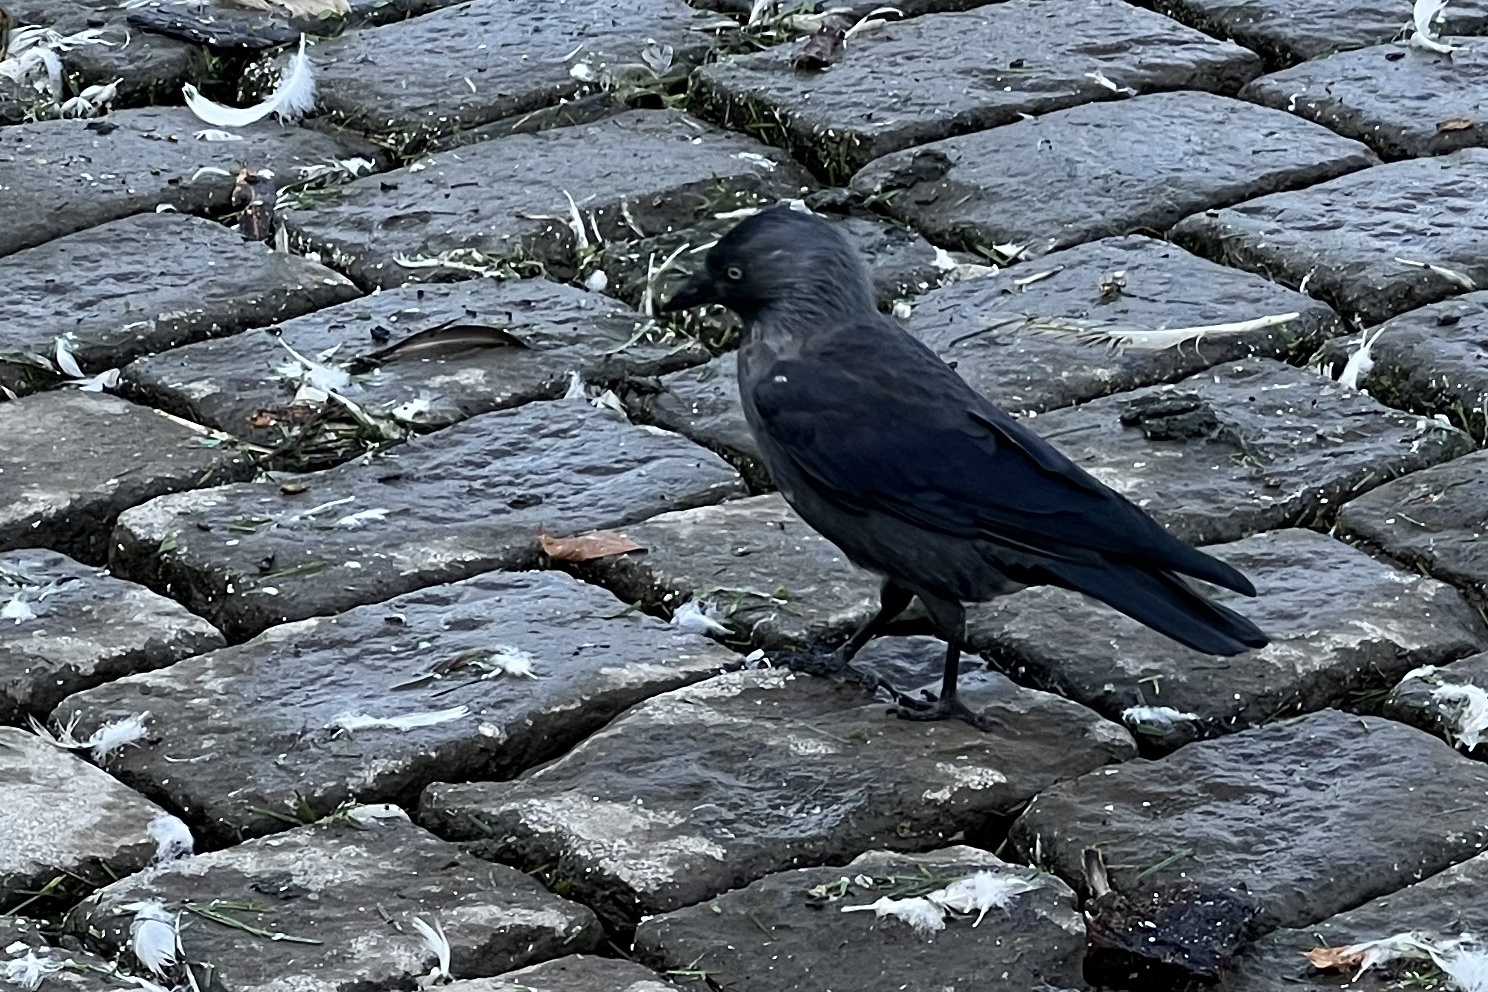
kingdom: Animalia
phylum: Chordata
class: Aves
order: Passeriformes
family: Corvidae
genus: Coloeus
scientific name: Coloeus monedula
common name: Western jackdaw
